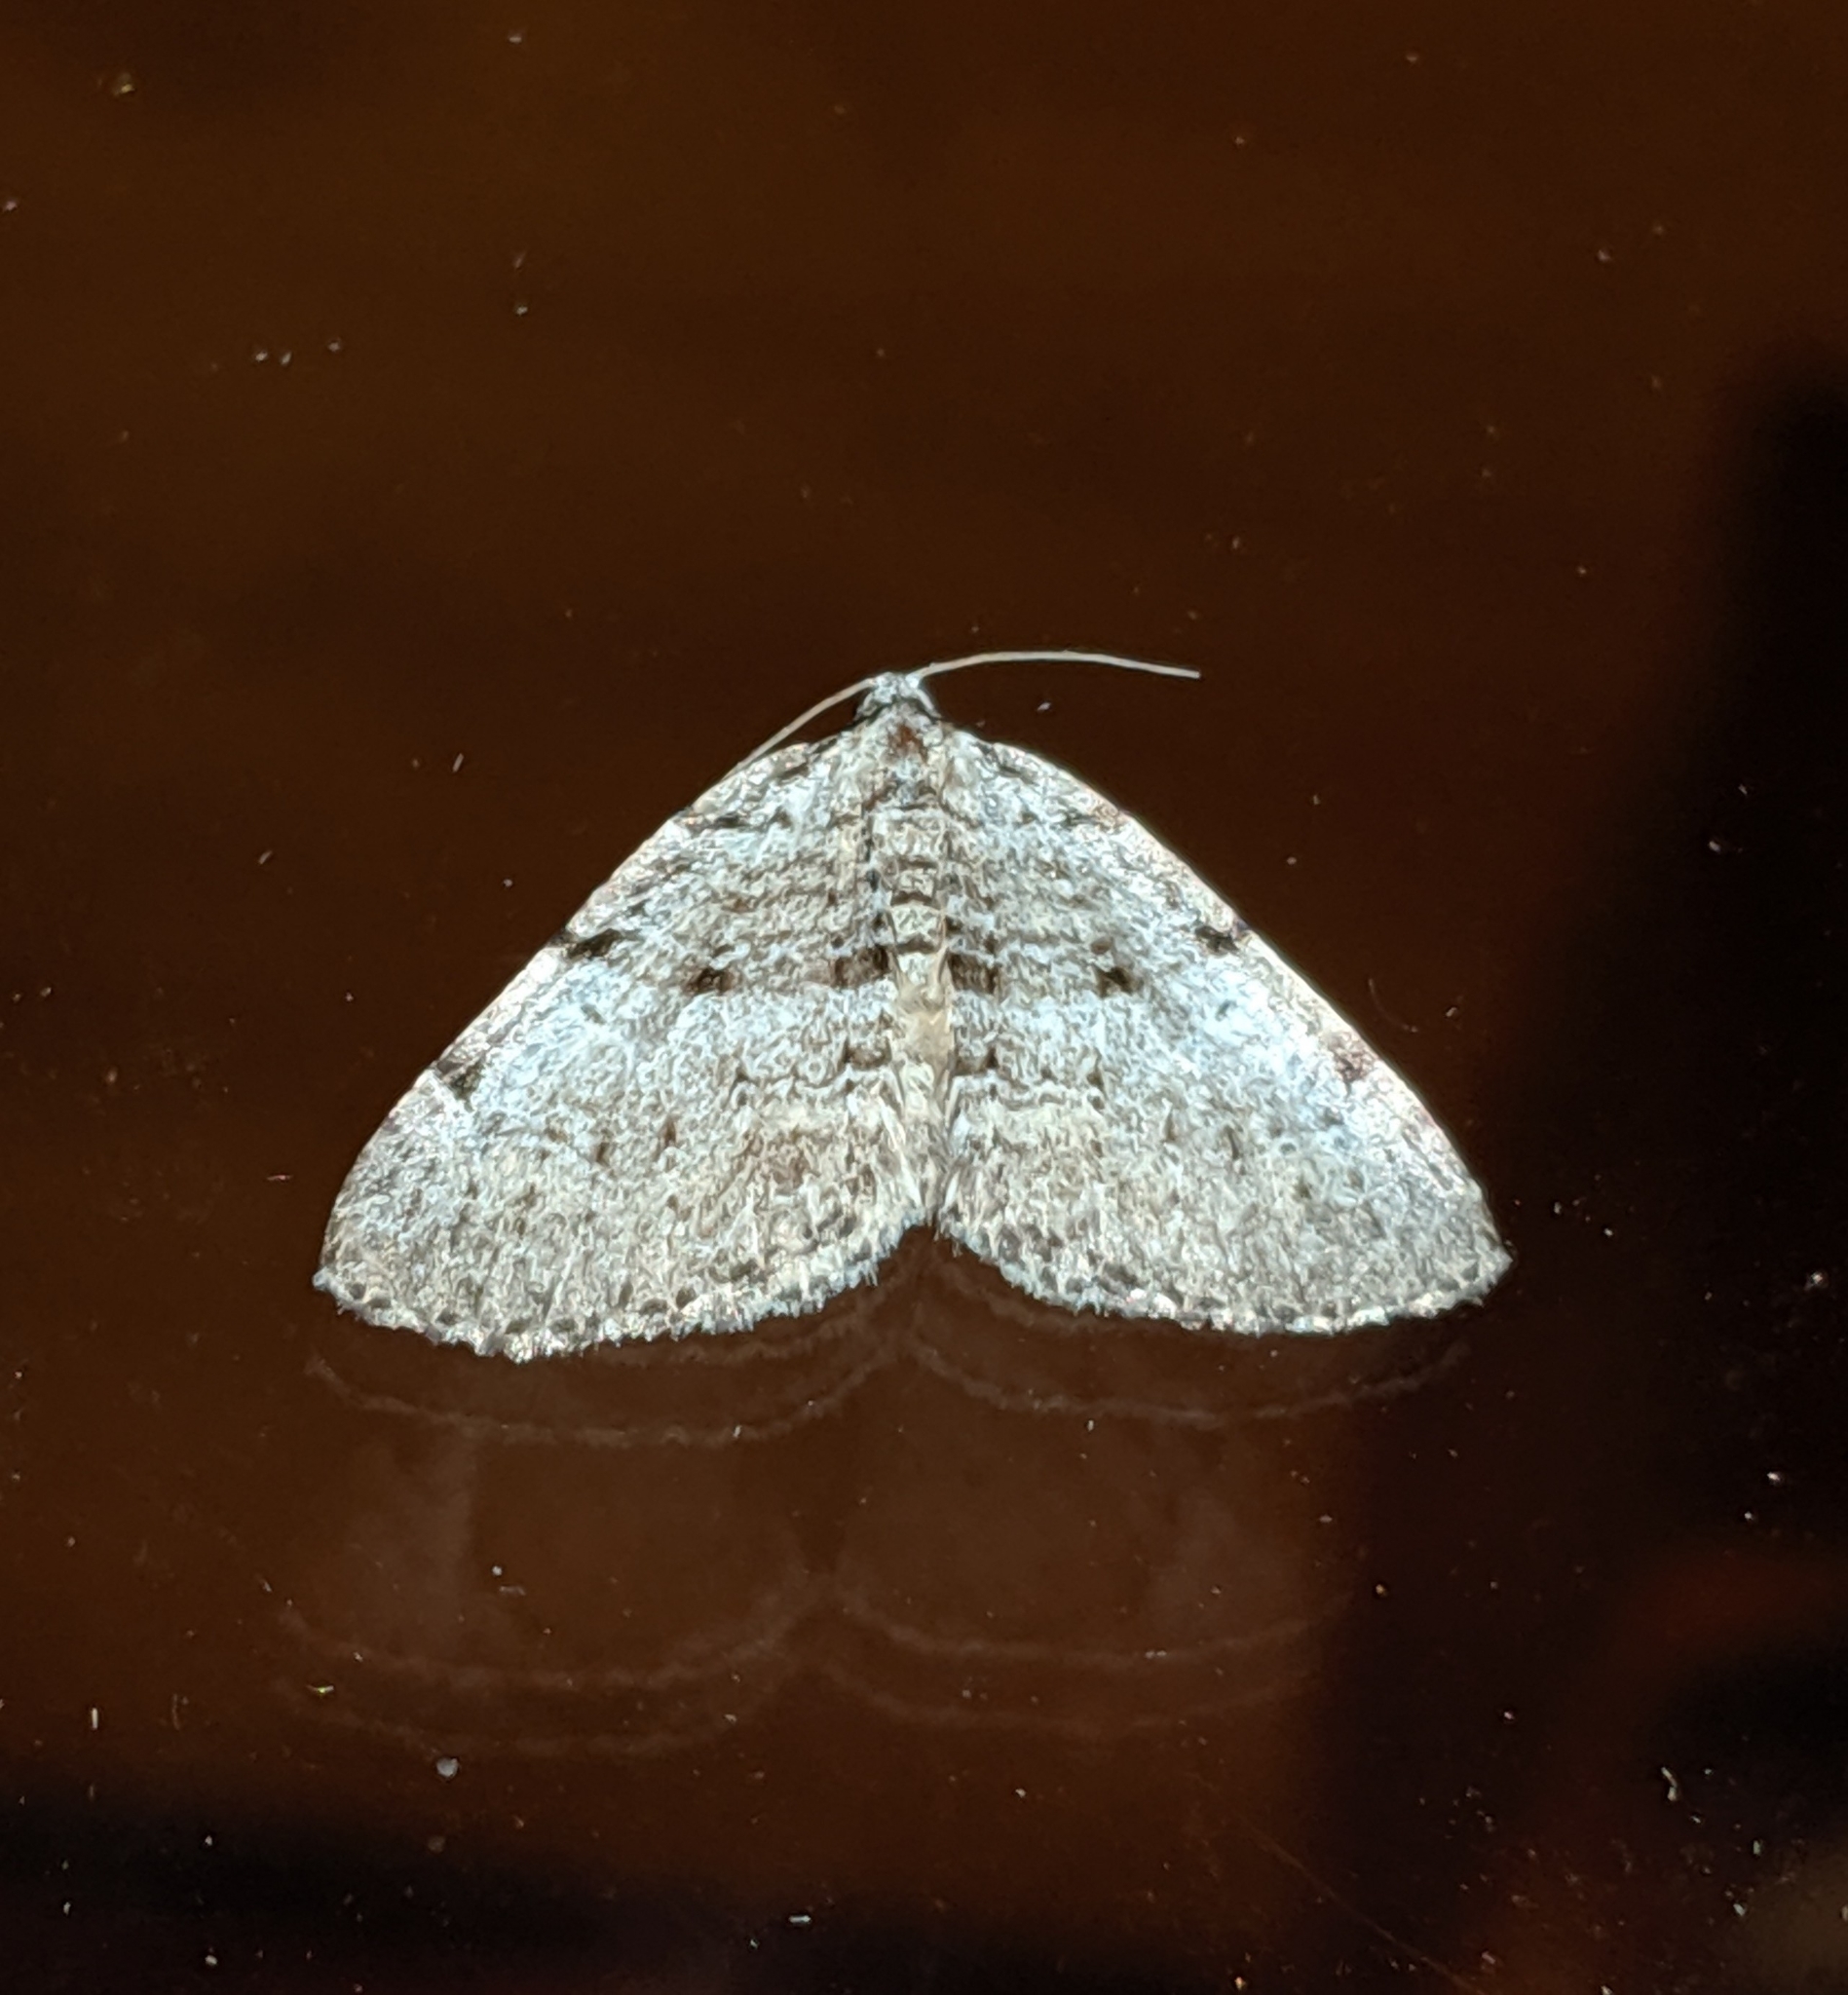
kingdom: Animalia
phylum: Arthropoda
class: Insecta
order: Lepidoptera
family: Geometridae
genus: Perizoma
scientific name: Perizoma curvilinea
